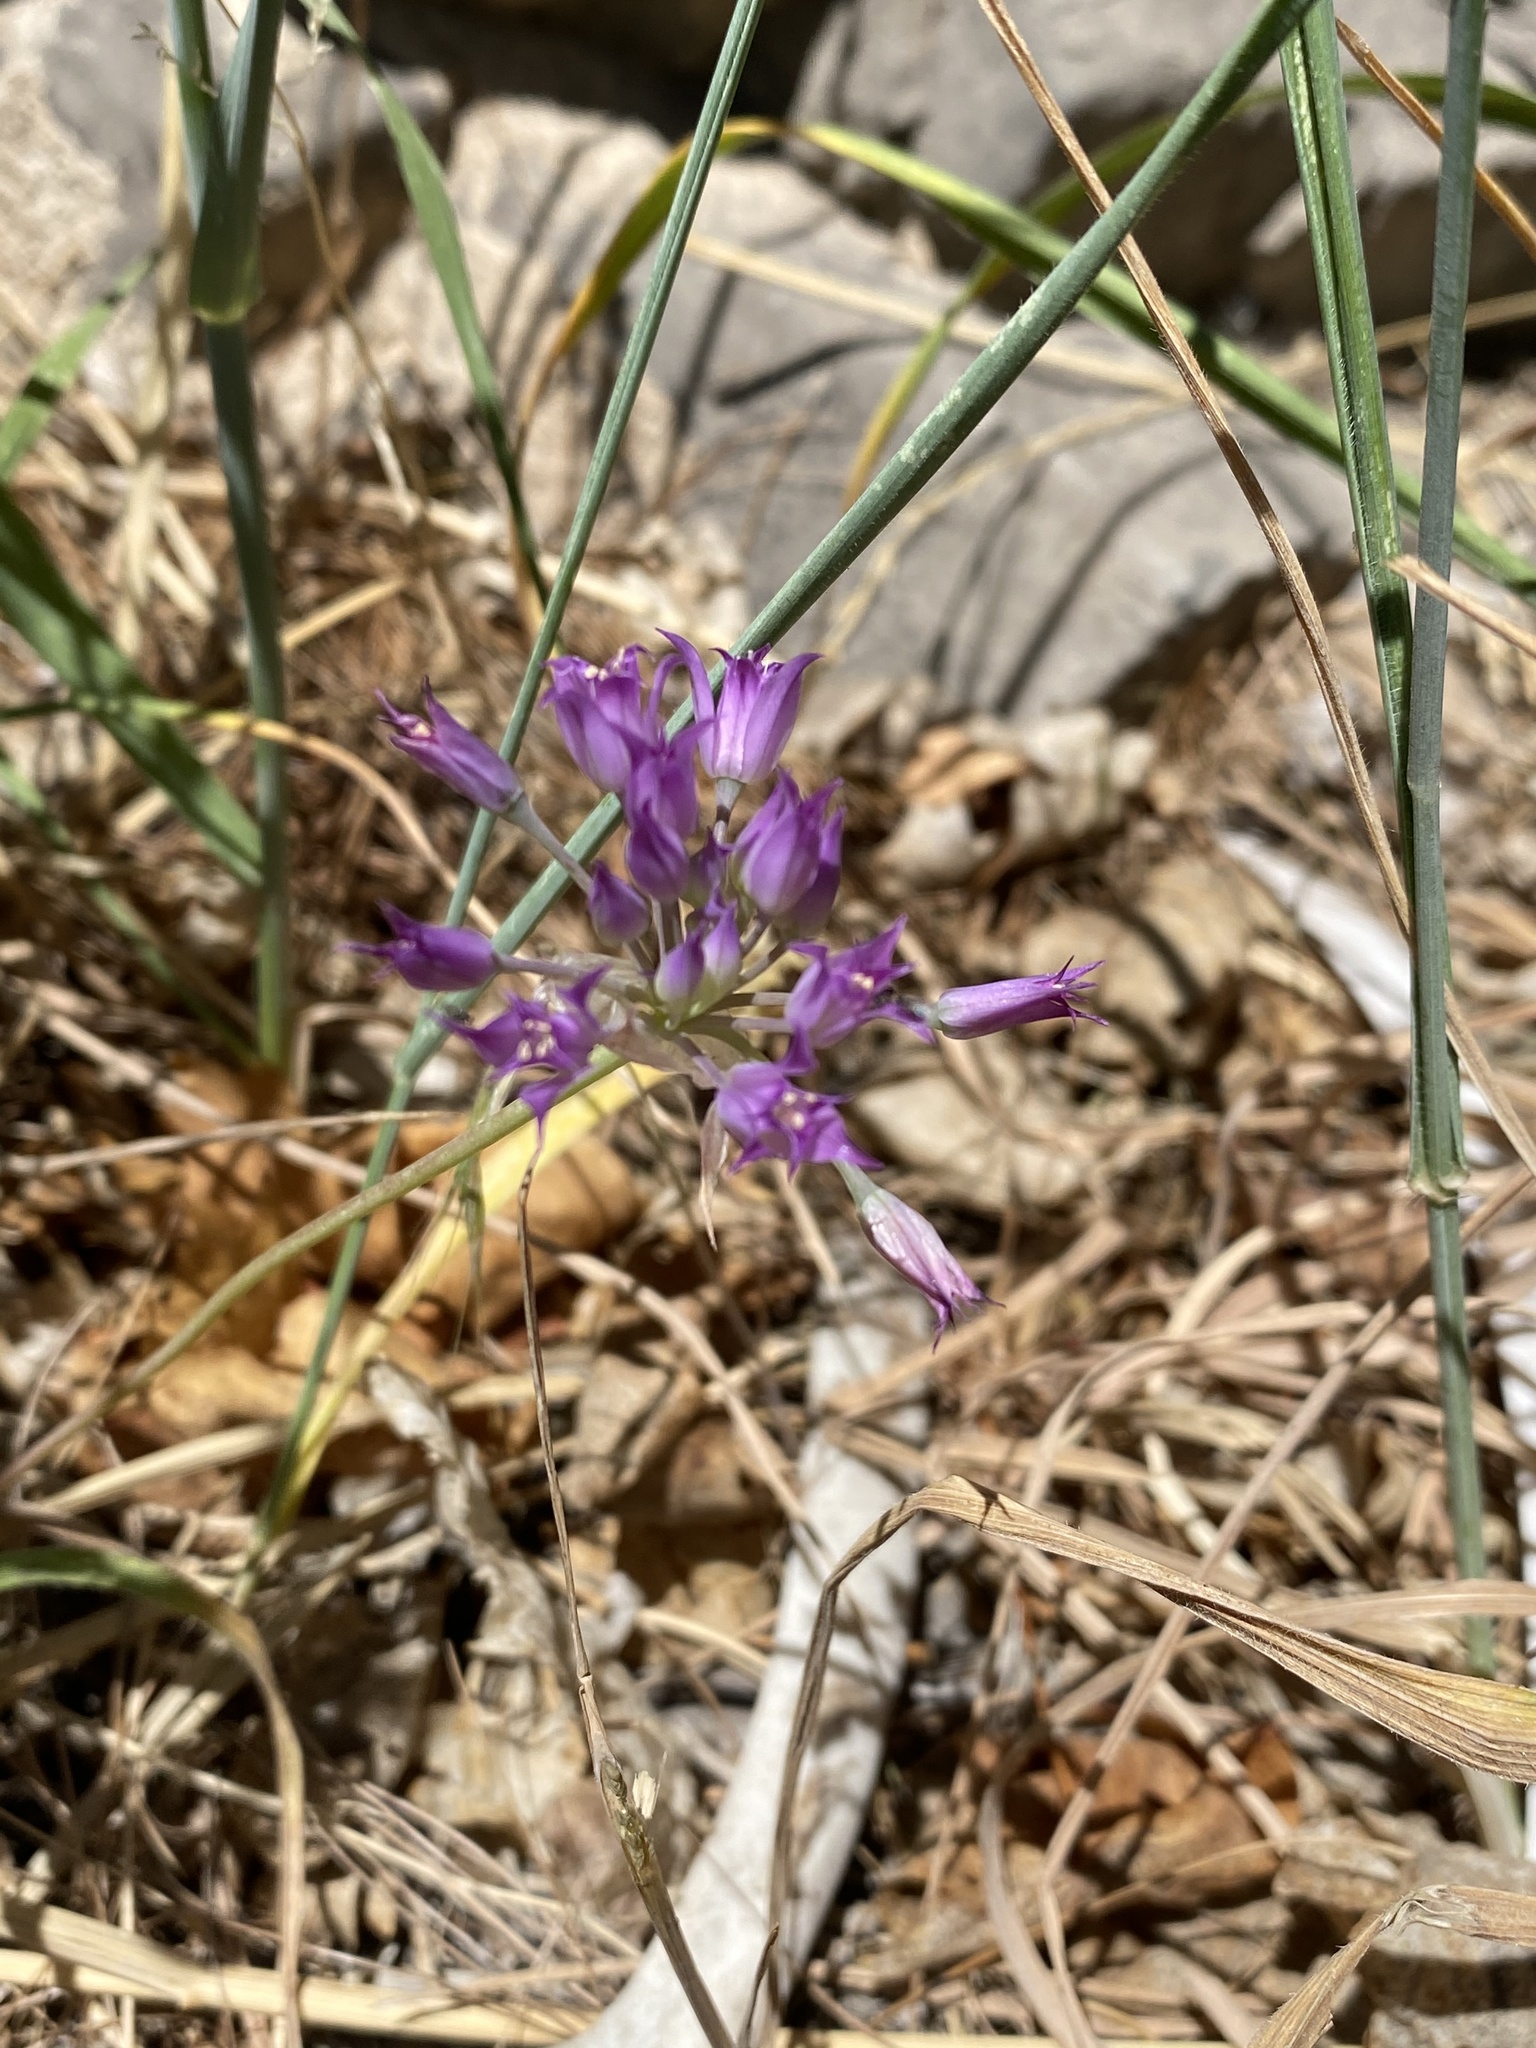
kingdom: Plantae
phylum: Tracheophyta
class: Liliopsida
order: Asparagales
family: Amaryllidaceae
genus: Allium
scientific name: Allium acuminatum
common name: Hooker's onion
